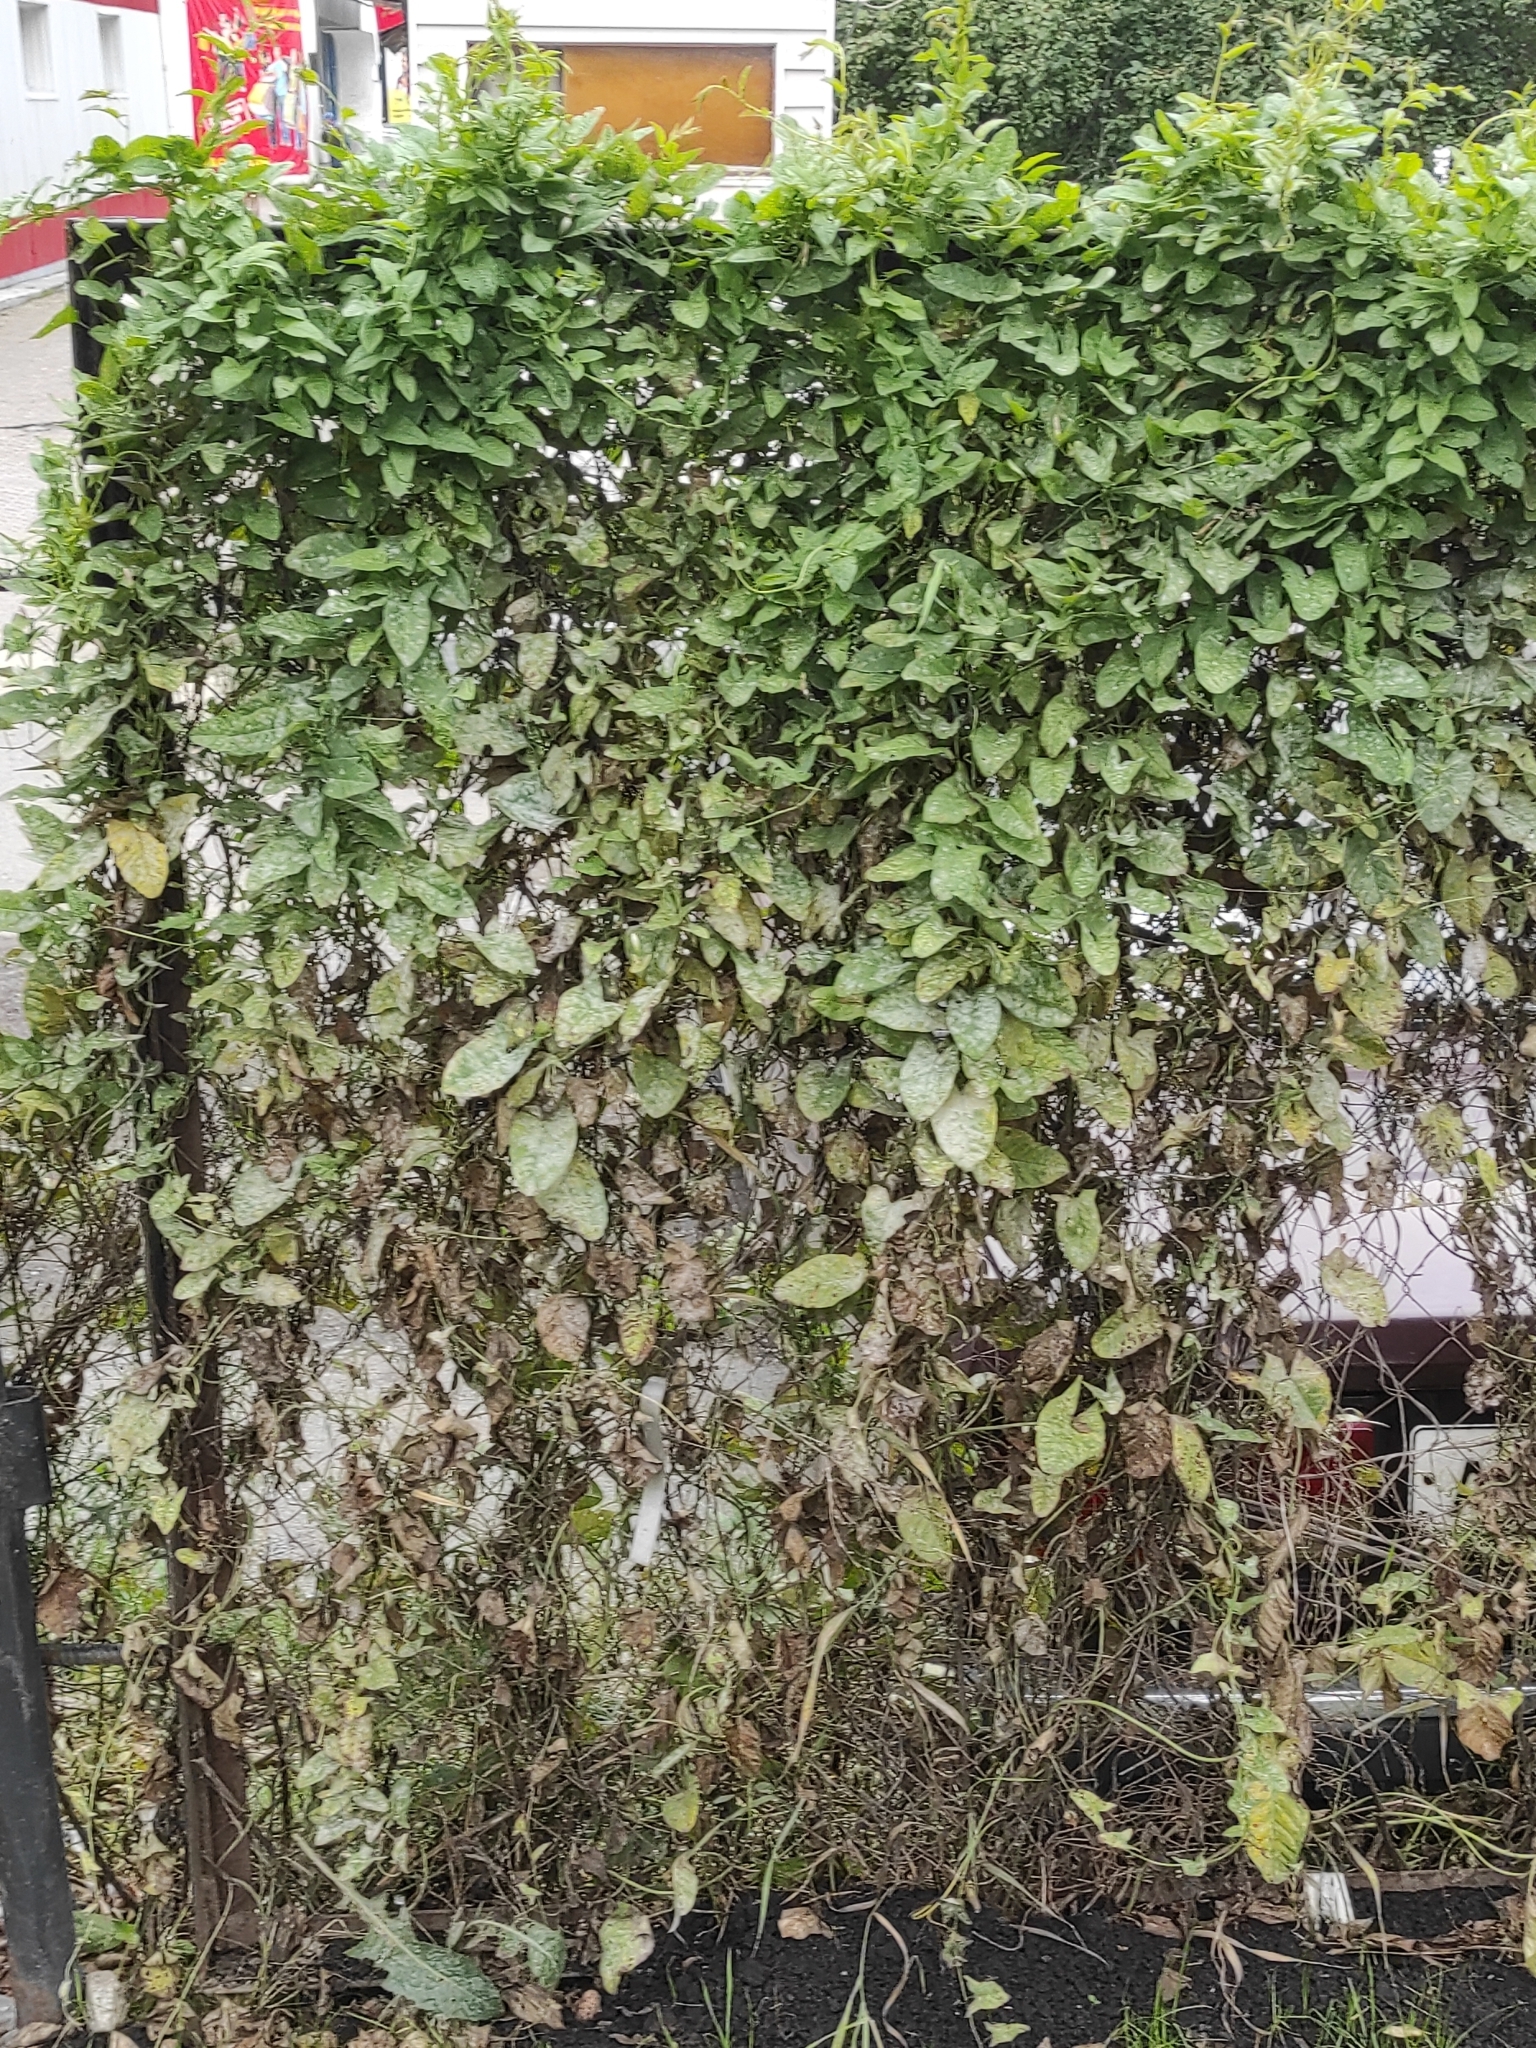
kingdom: Plantae
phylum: Tracheophyta
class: Magnoliopsida
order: Solanales
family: Convolvulaceae
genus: Convolvulus
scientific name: Convolvulus arvensis
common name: Field bindweed
